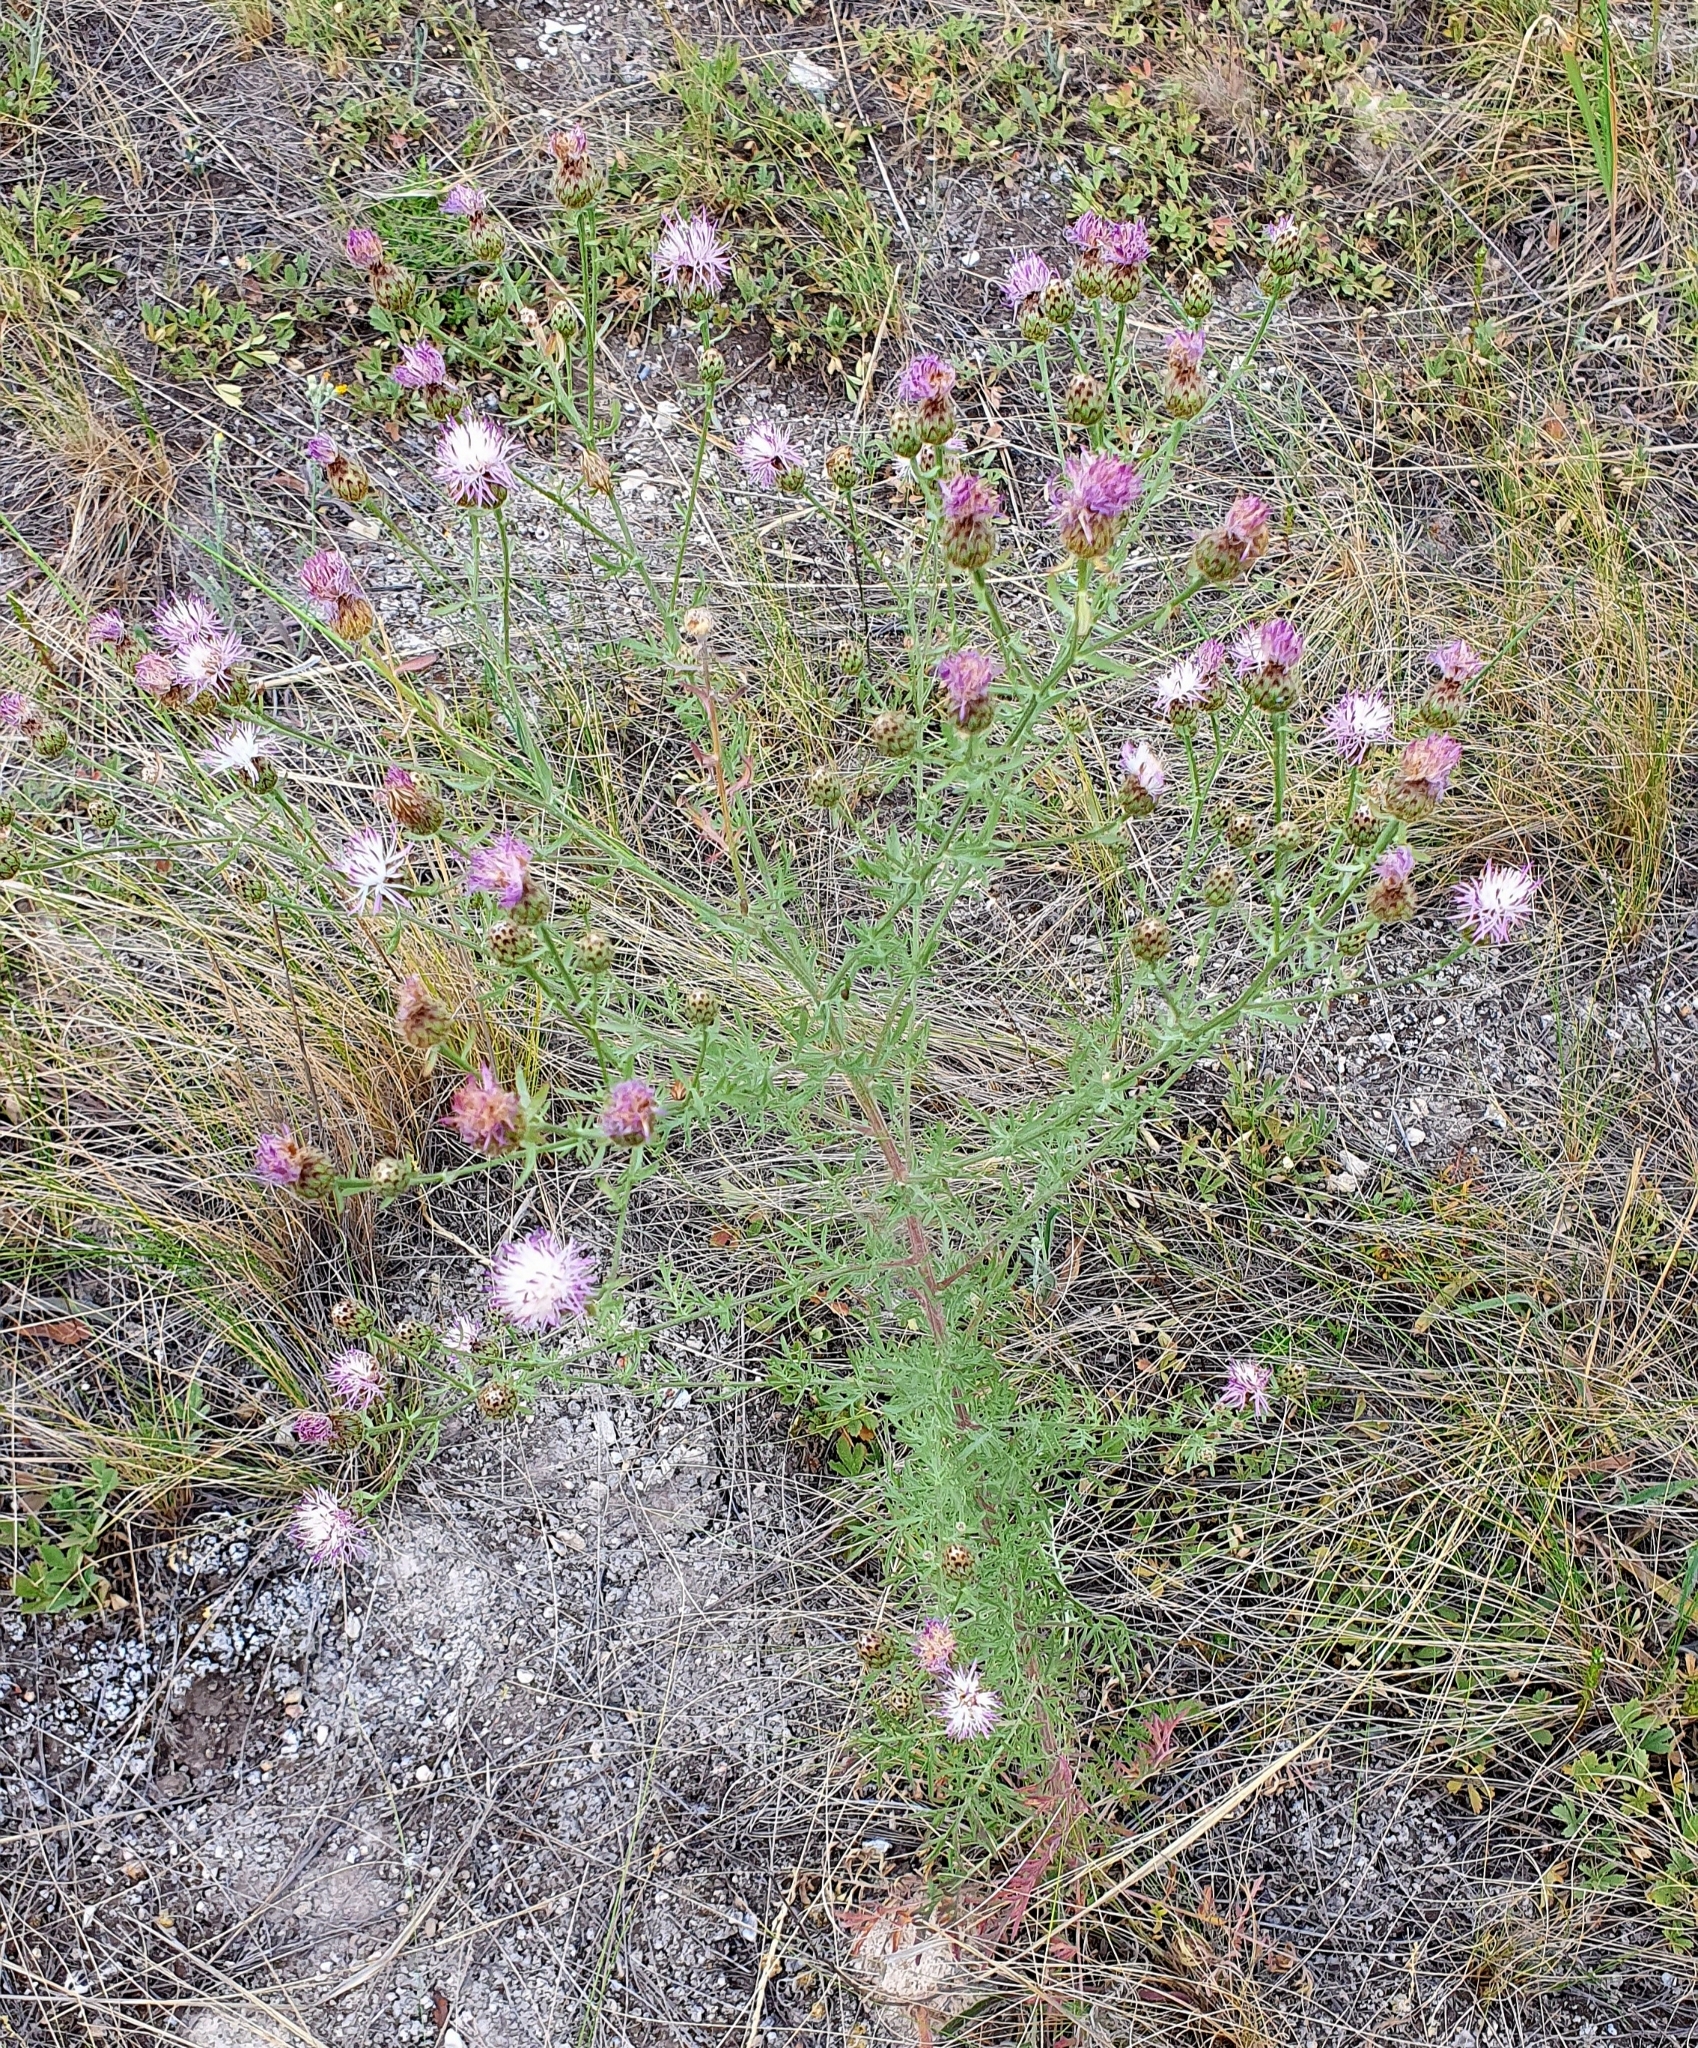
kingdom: Plantae
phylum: Tracheophyta
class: Magnoliopsida
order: Asterales
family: Asteraceae
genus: Centaurea
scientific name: Centaurea stoebe
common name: Spotted knapweed
